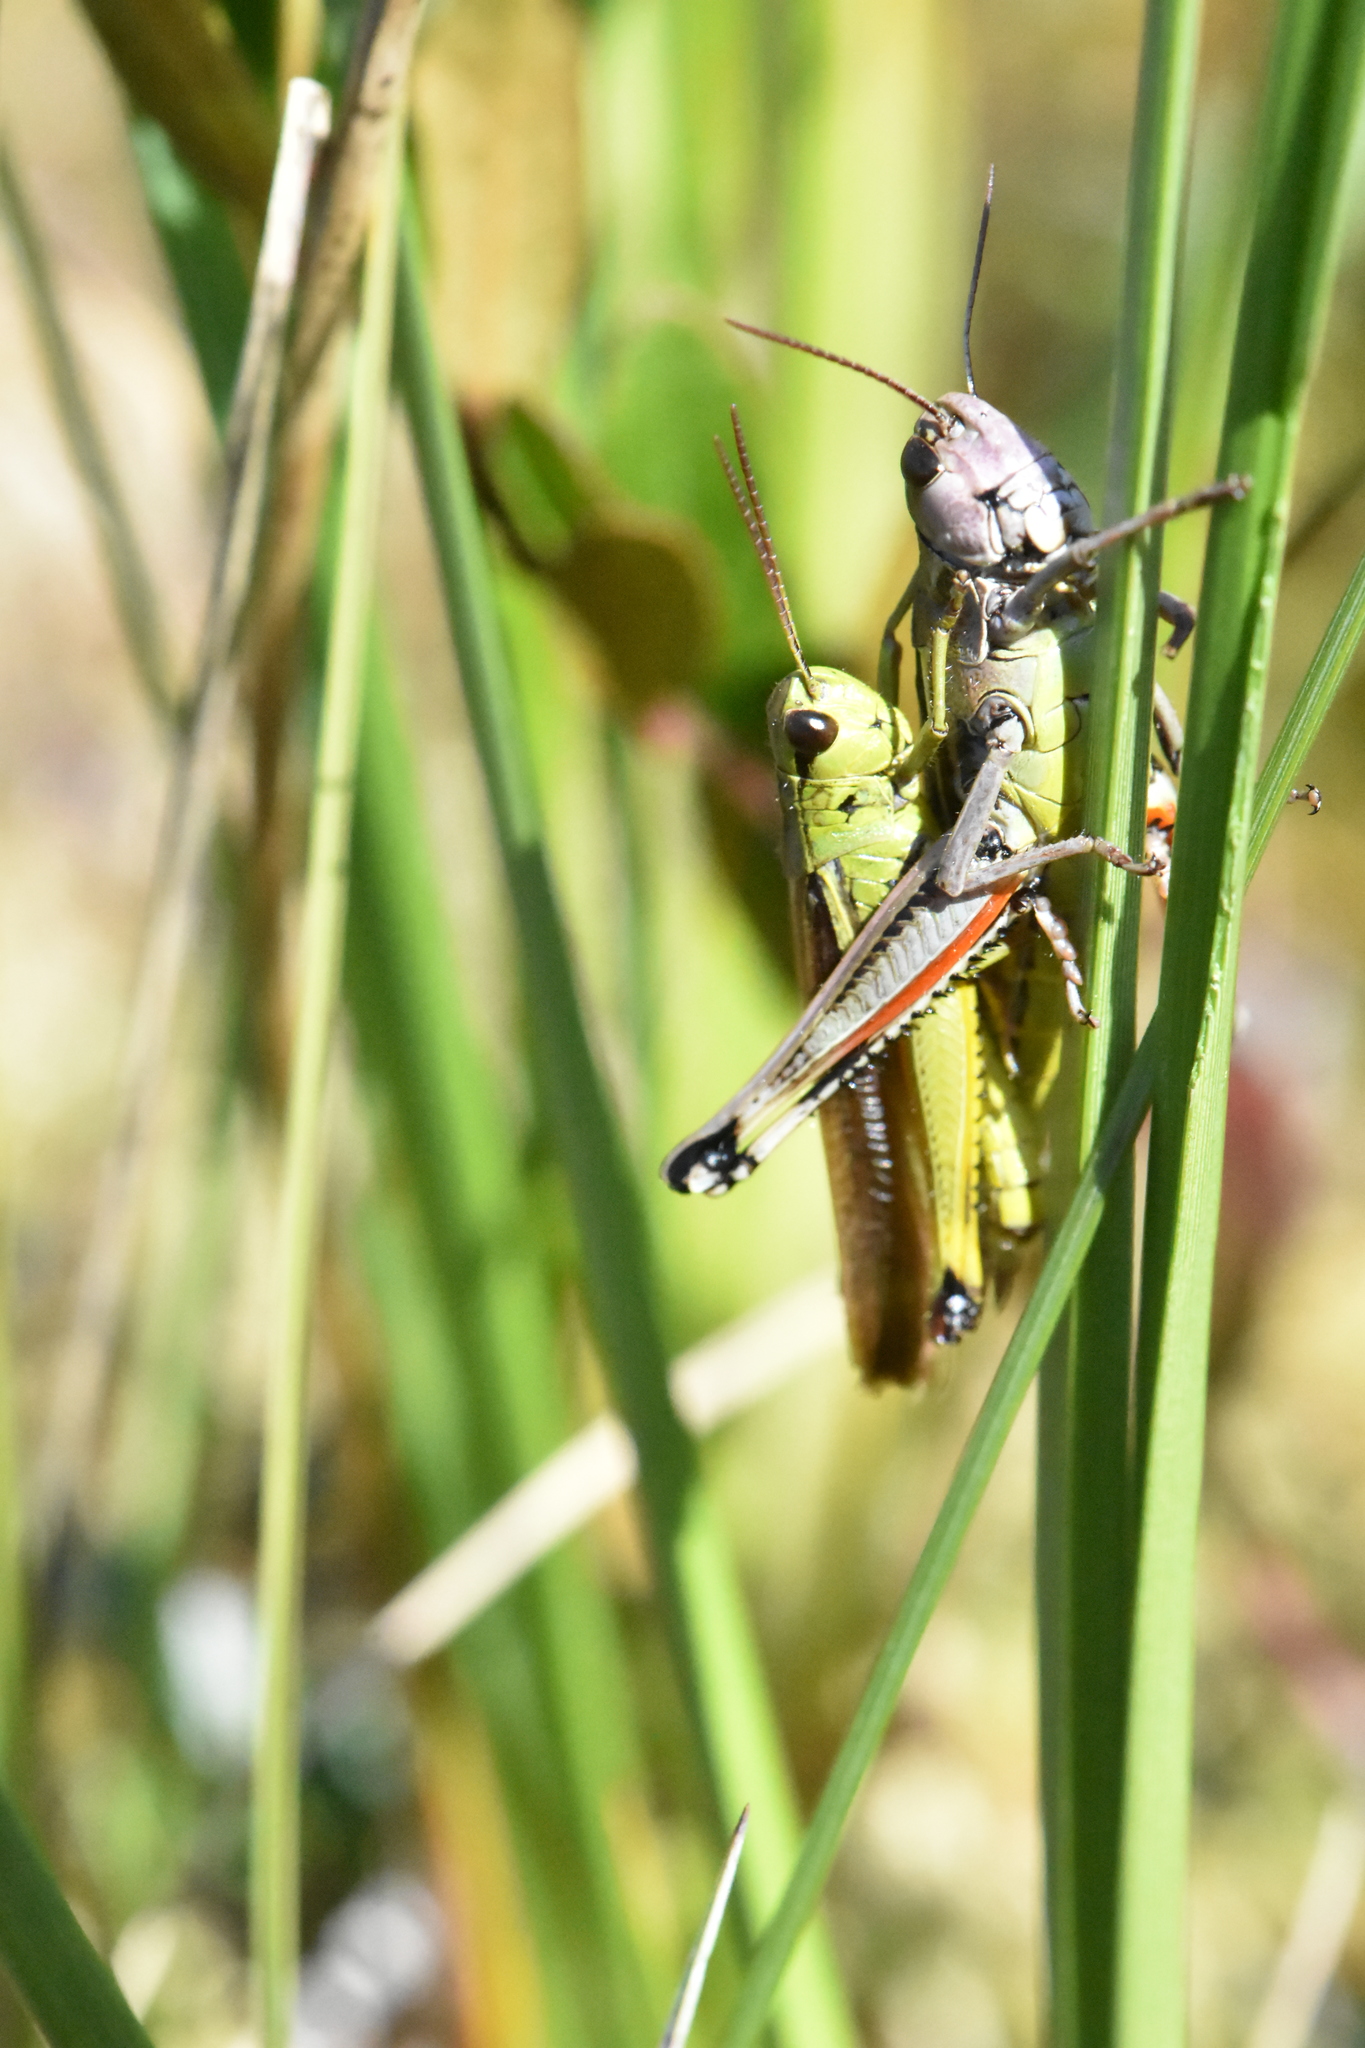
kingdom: Animalia
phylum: Arthropoda
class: Insecta
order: Orthoptera
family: Acrididae
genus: Stethophyma
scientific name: Stethophyma grossum
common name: Large marsh grasshopper
